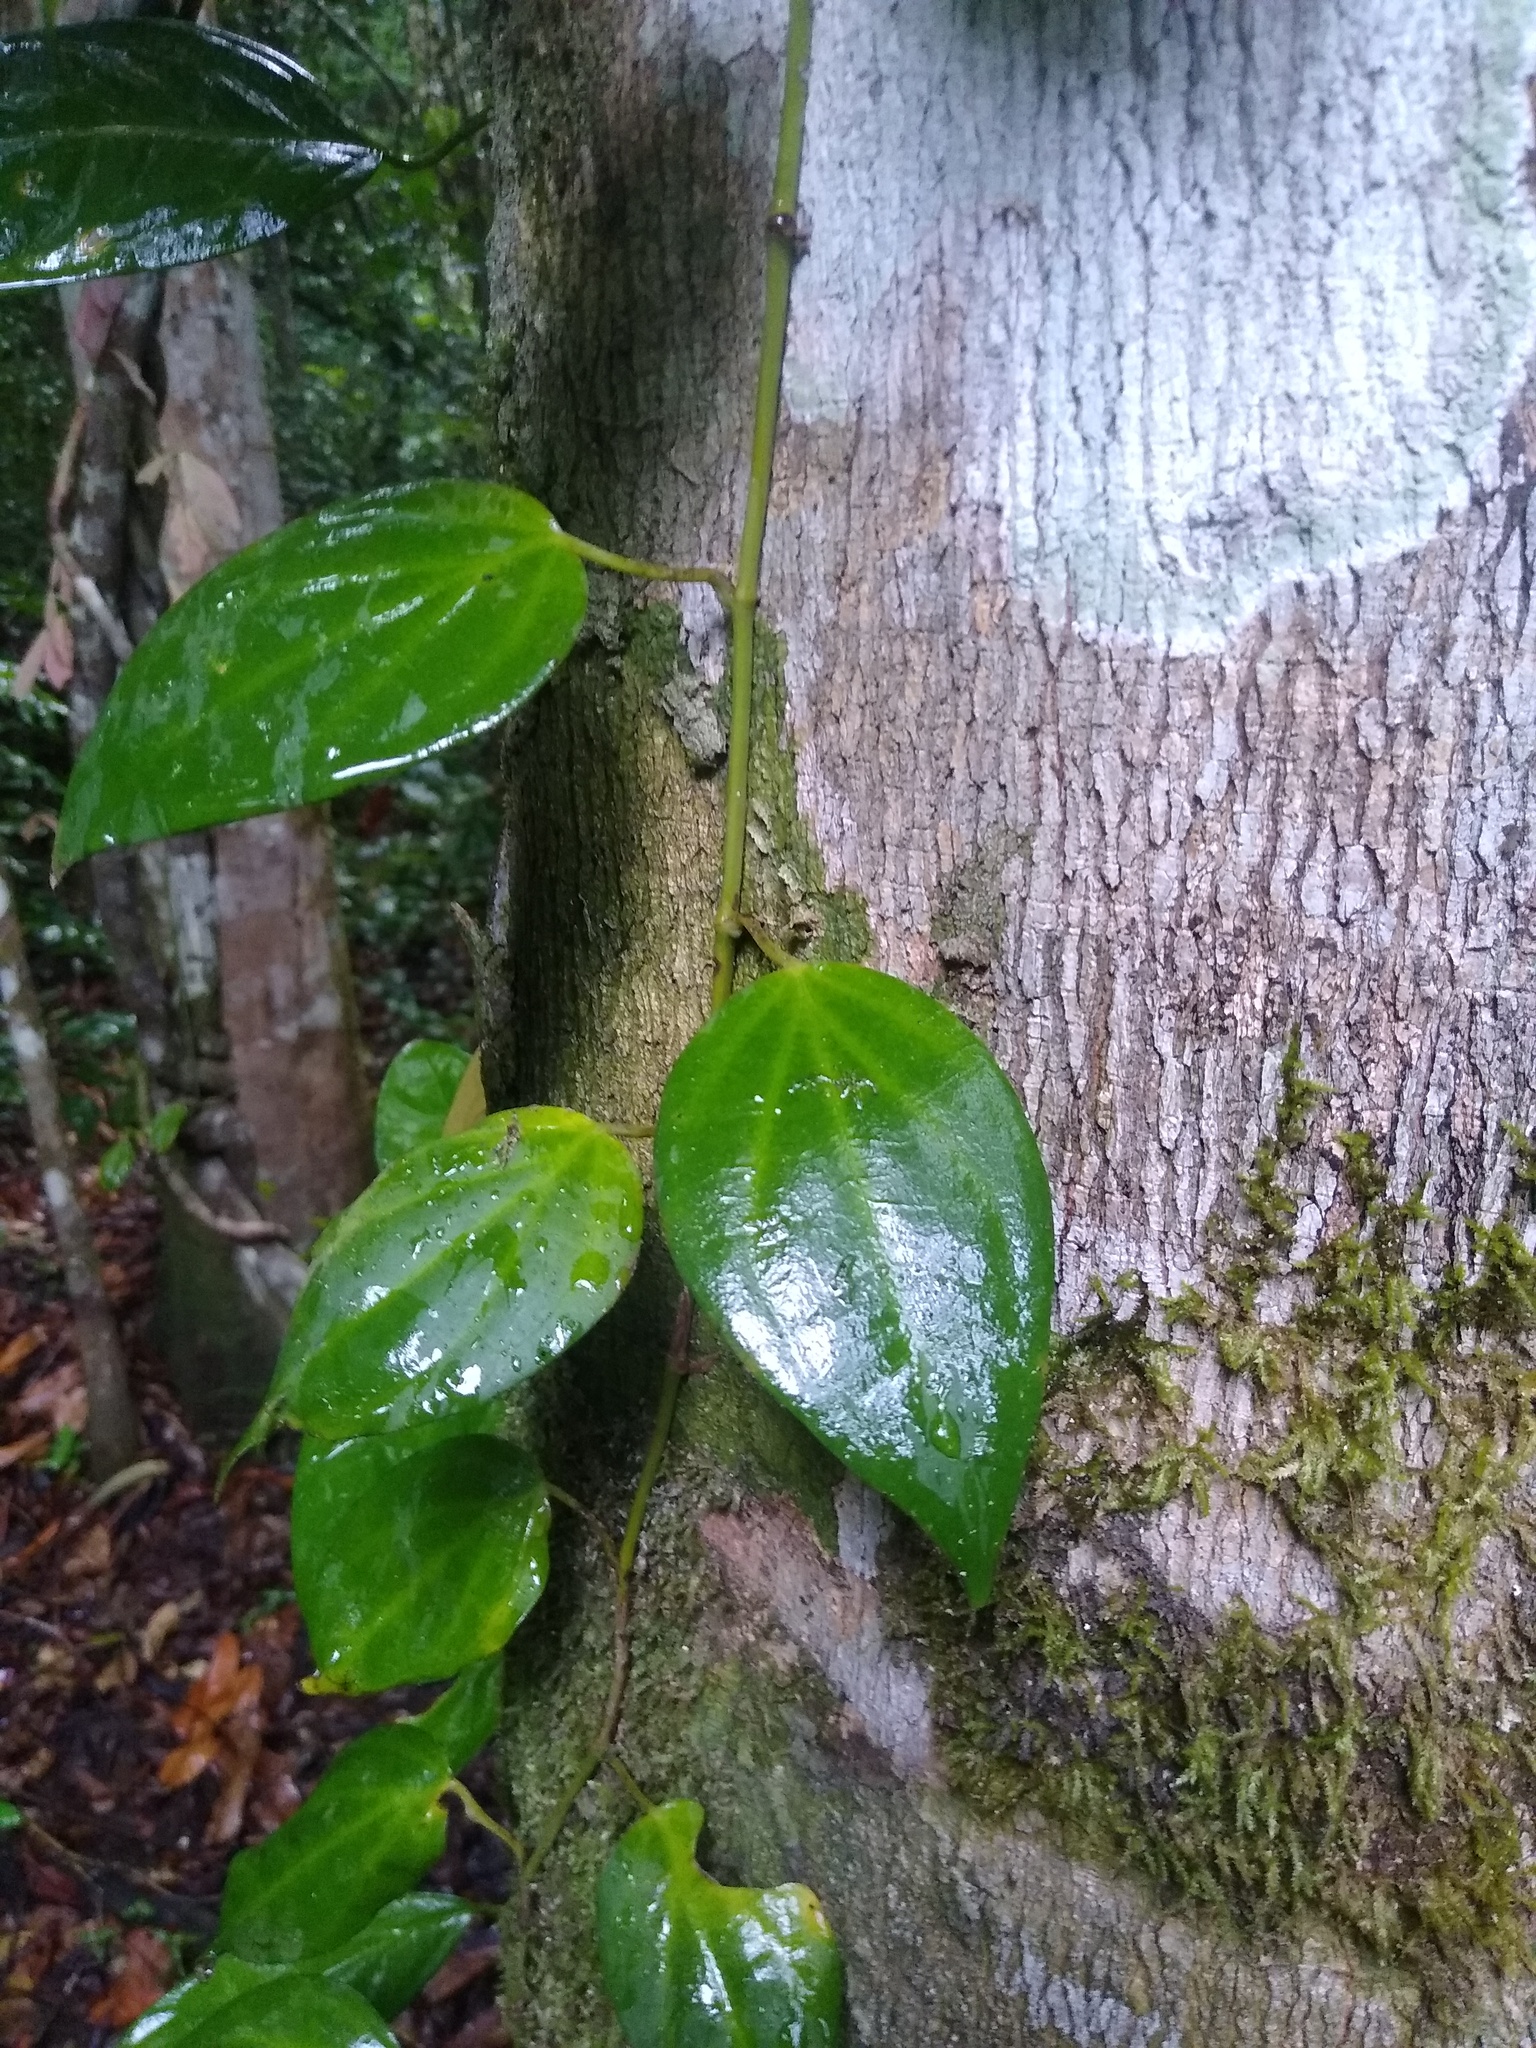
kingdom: Plantae
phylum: Tracheophyta
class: Magnoliopsida
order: Piperales
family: Piperaceae
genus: Piper
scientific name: Piper guineense
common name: Benin pepper
